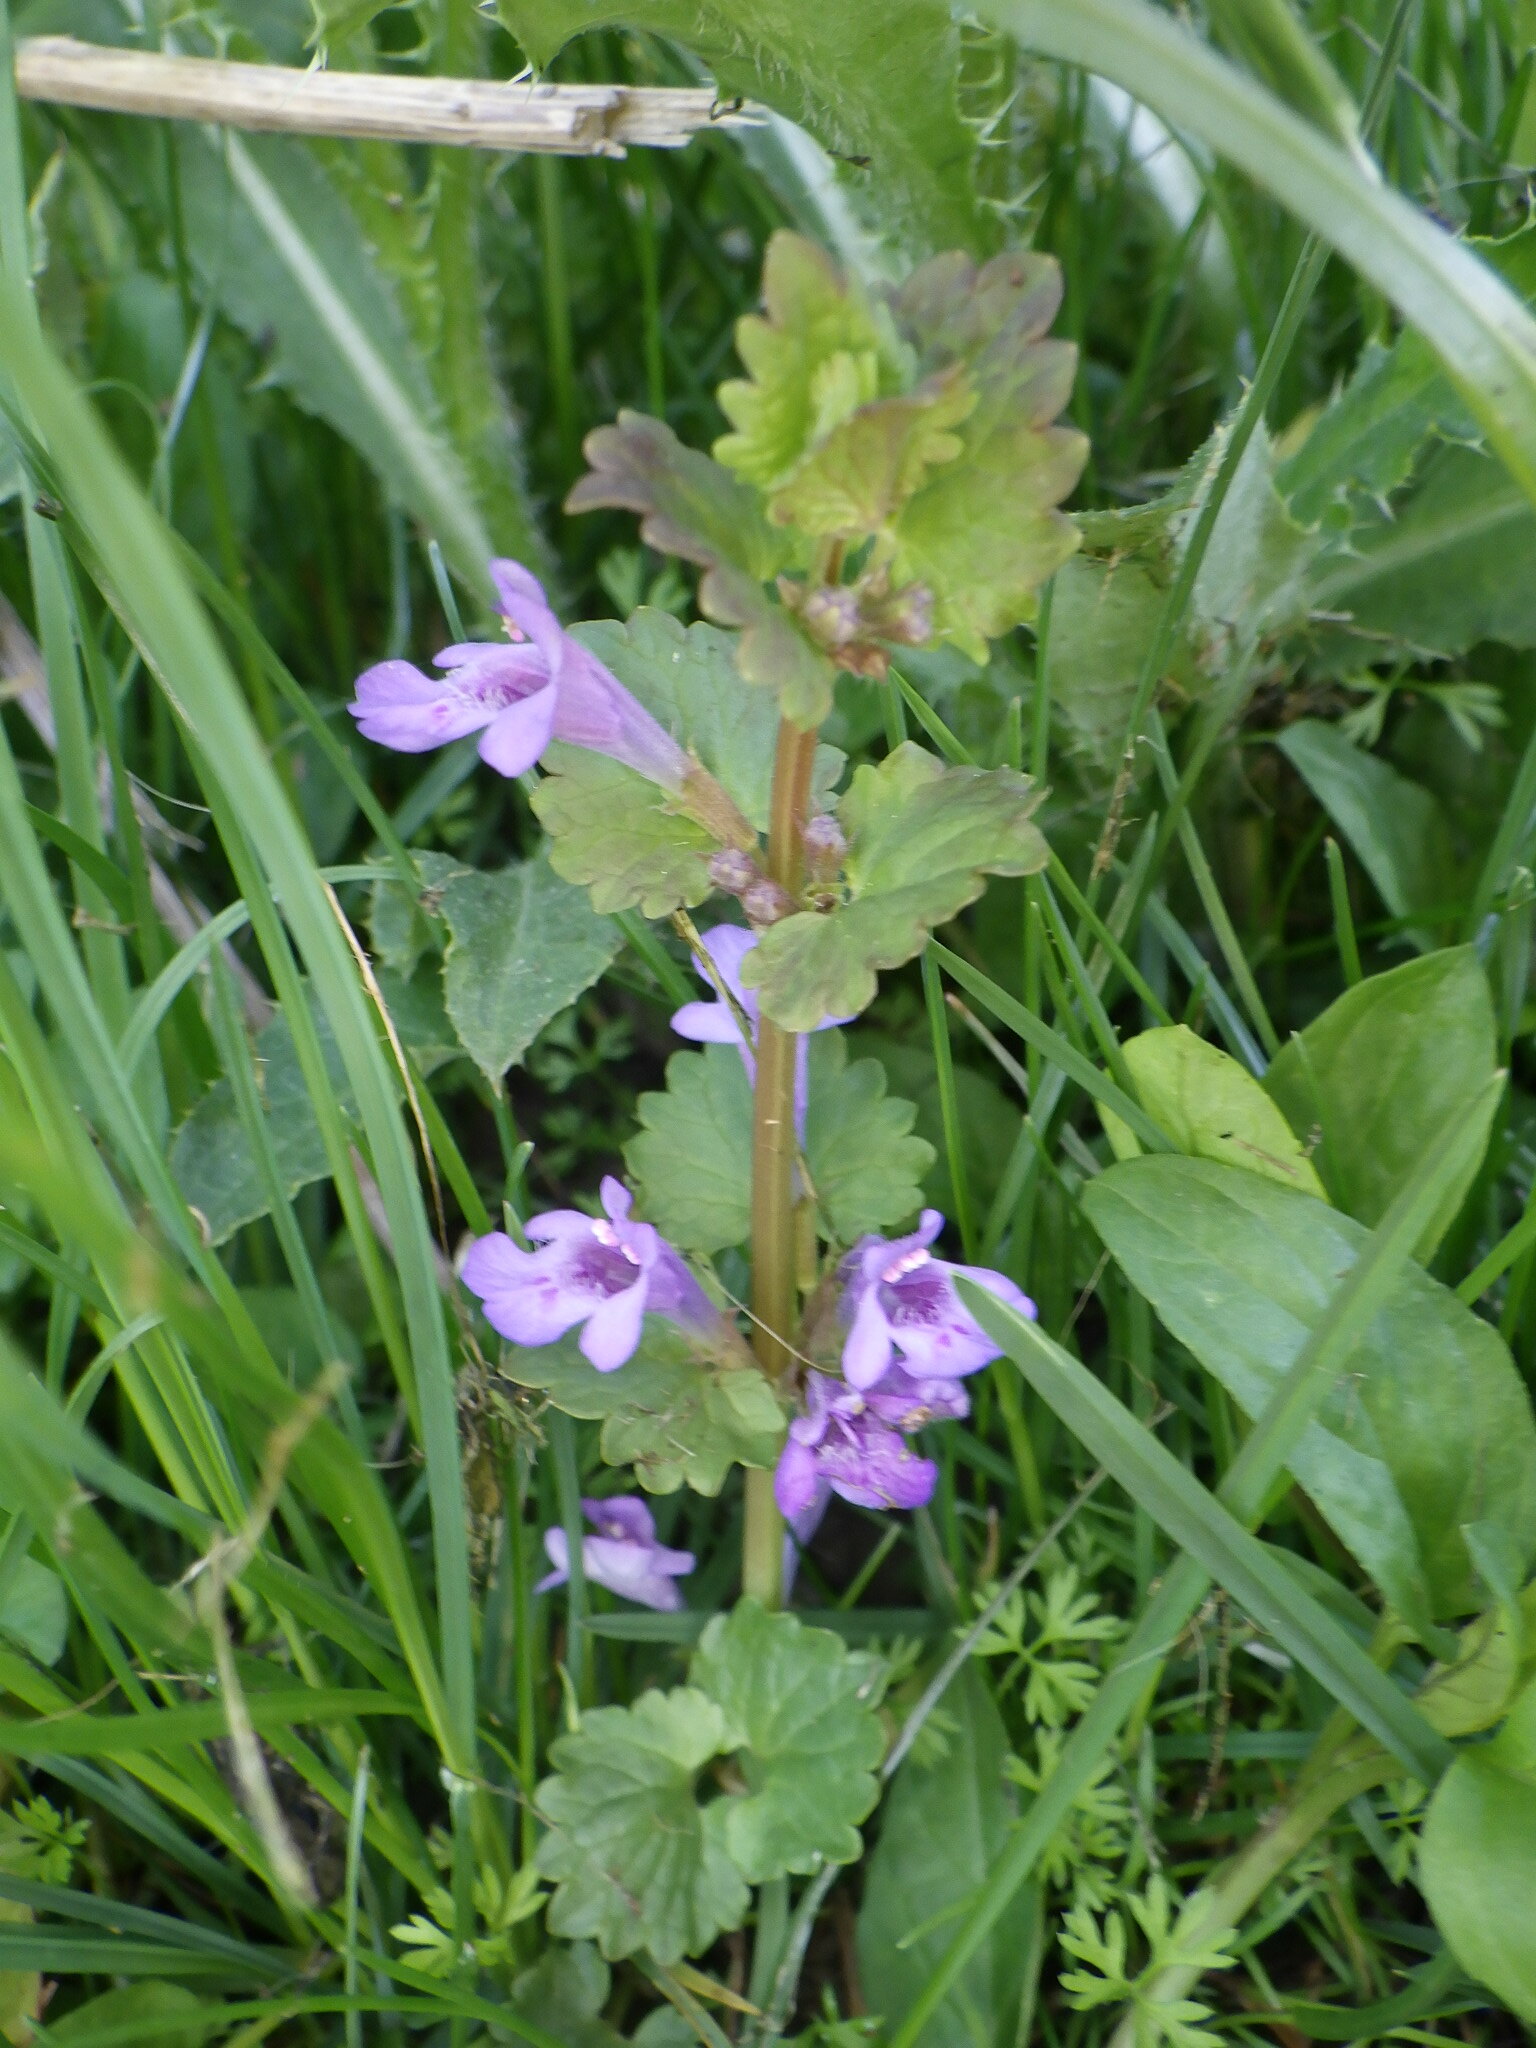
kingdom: Plantae
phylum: Tracheophyta
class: Magnoliopsida
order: Lamiales
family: Lamiaceae
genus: Glechoma
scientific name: Glechoma hederacea
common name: Ground ivy
